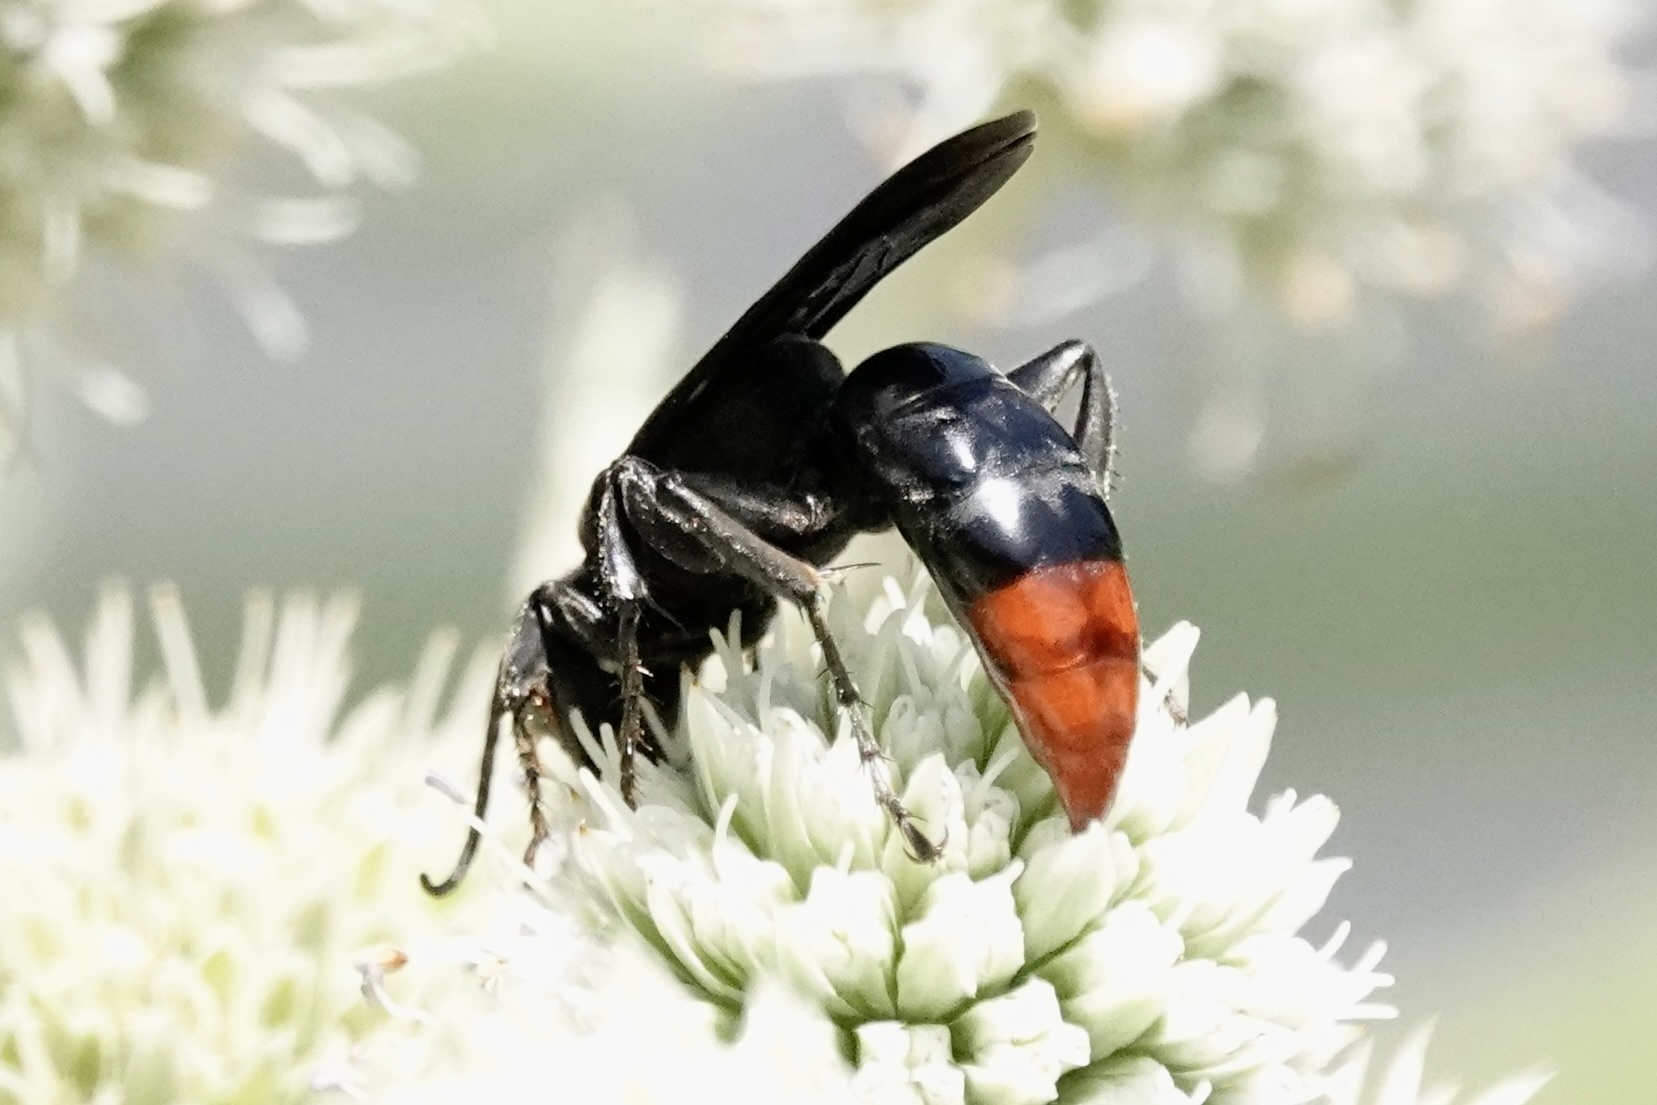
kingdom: Animalia
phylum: Arthropoda
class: Insecta
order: Hymenoptera
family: Crabronidae
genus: Larra
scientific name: Larra analis
